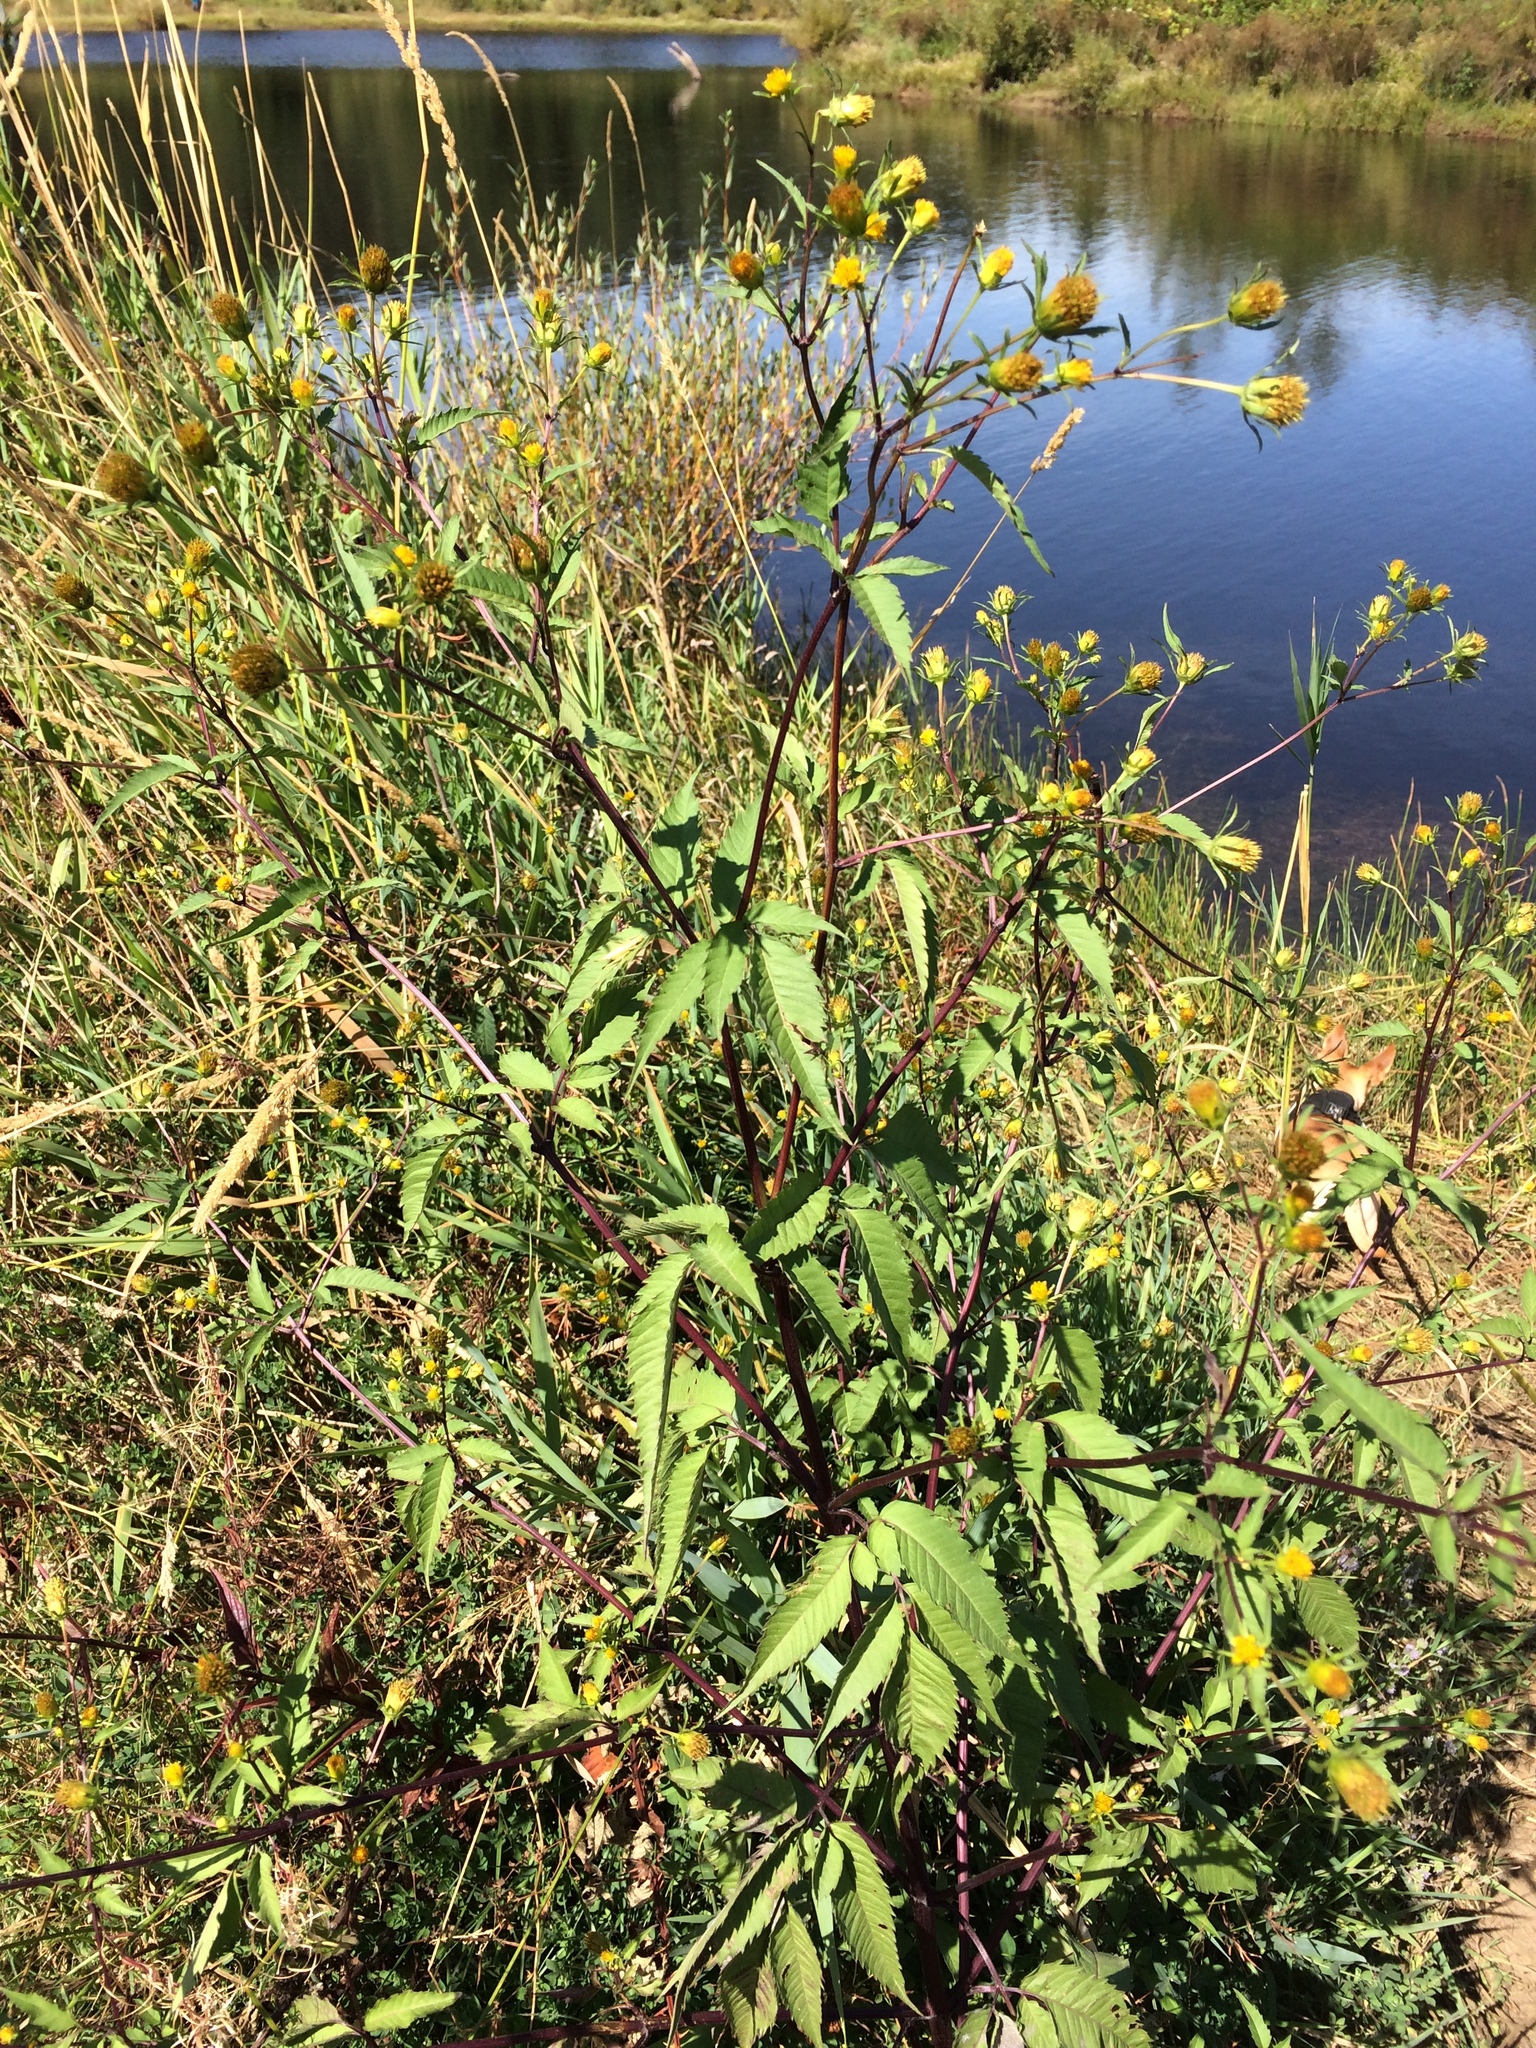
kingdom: Plantae
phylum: Tracheophyta
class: Magnoliopsida
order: Asterales
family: Asteraceae
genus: Bidens
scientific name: Bidens frondosa
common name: Beggarticks
